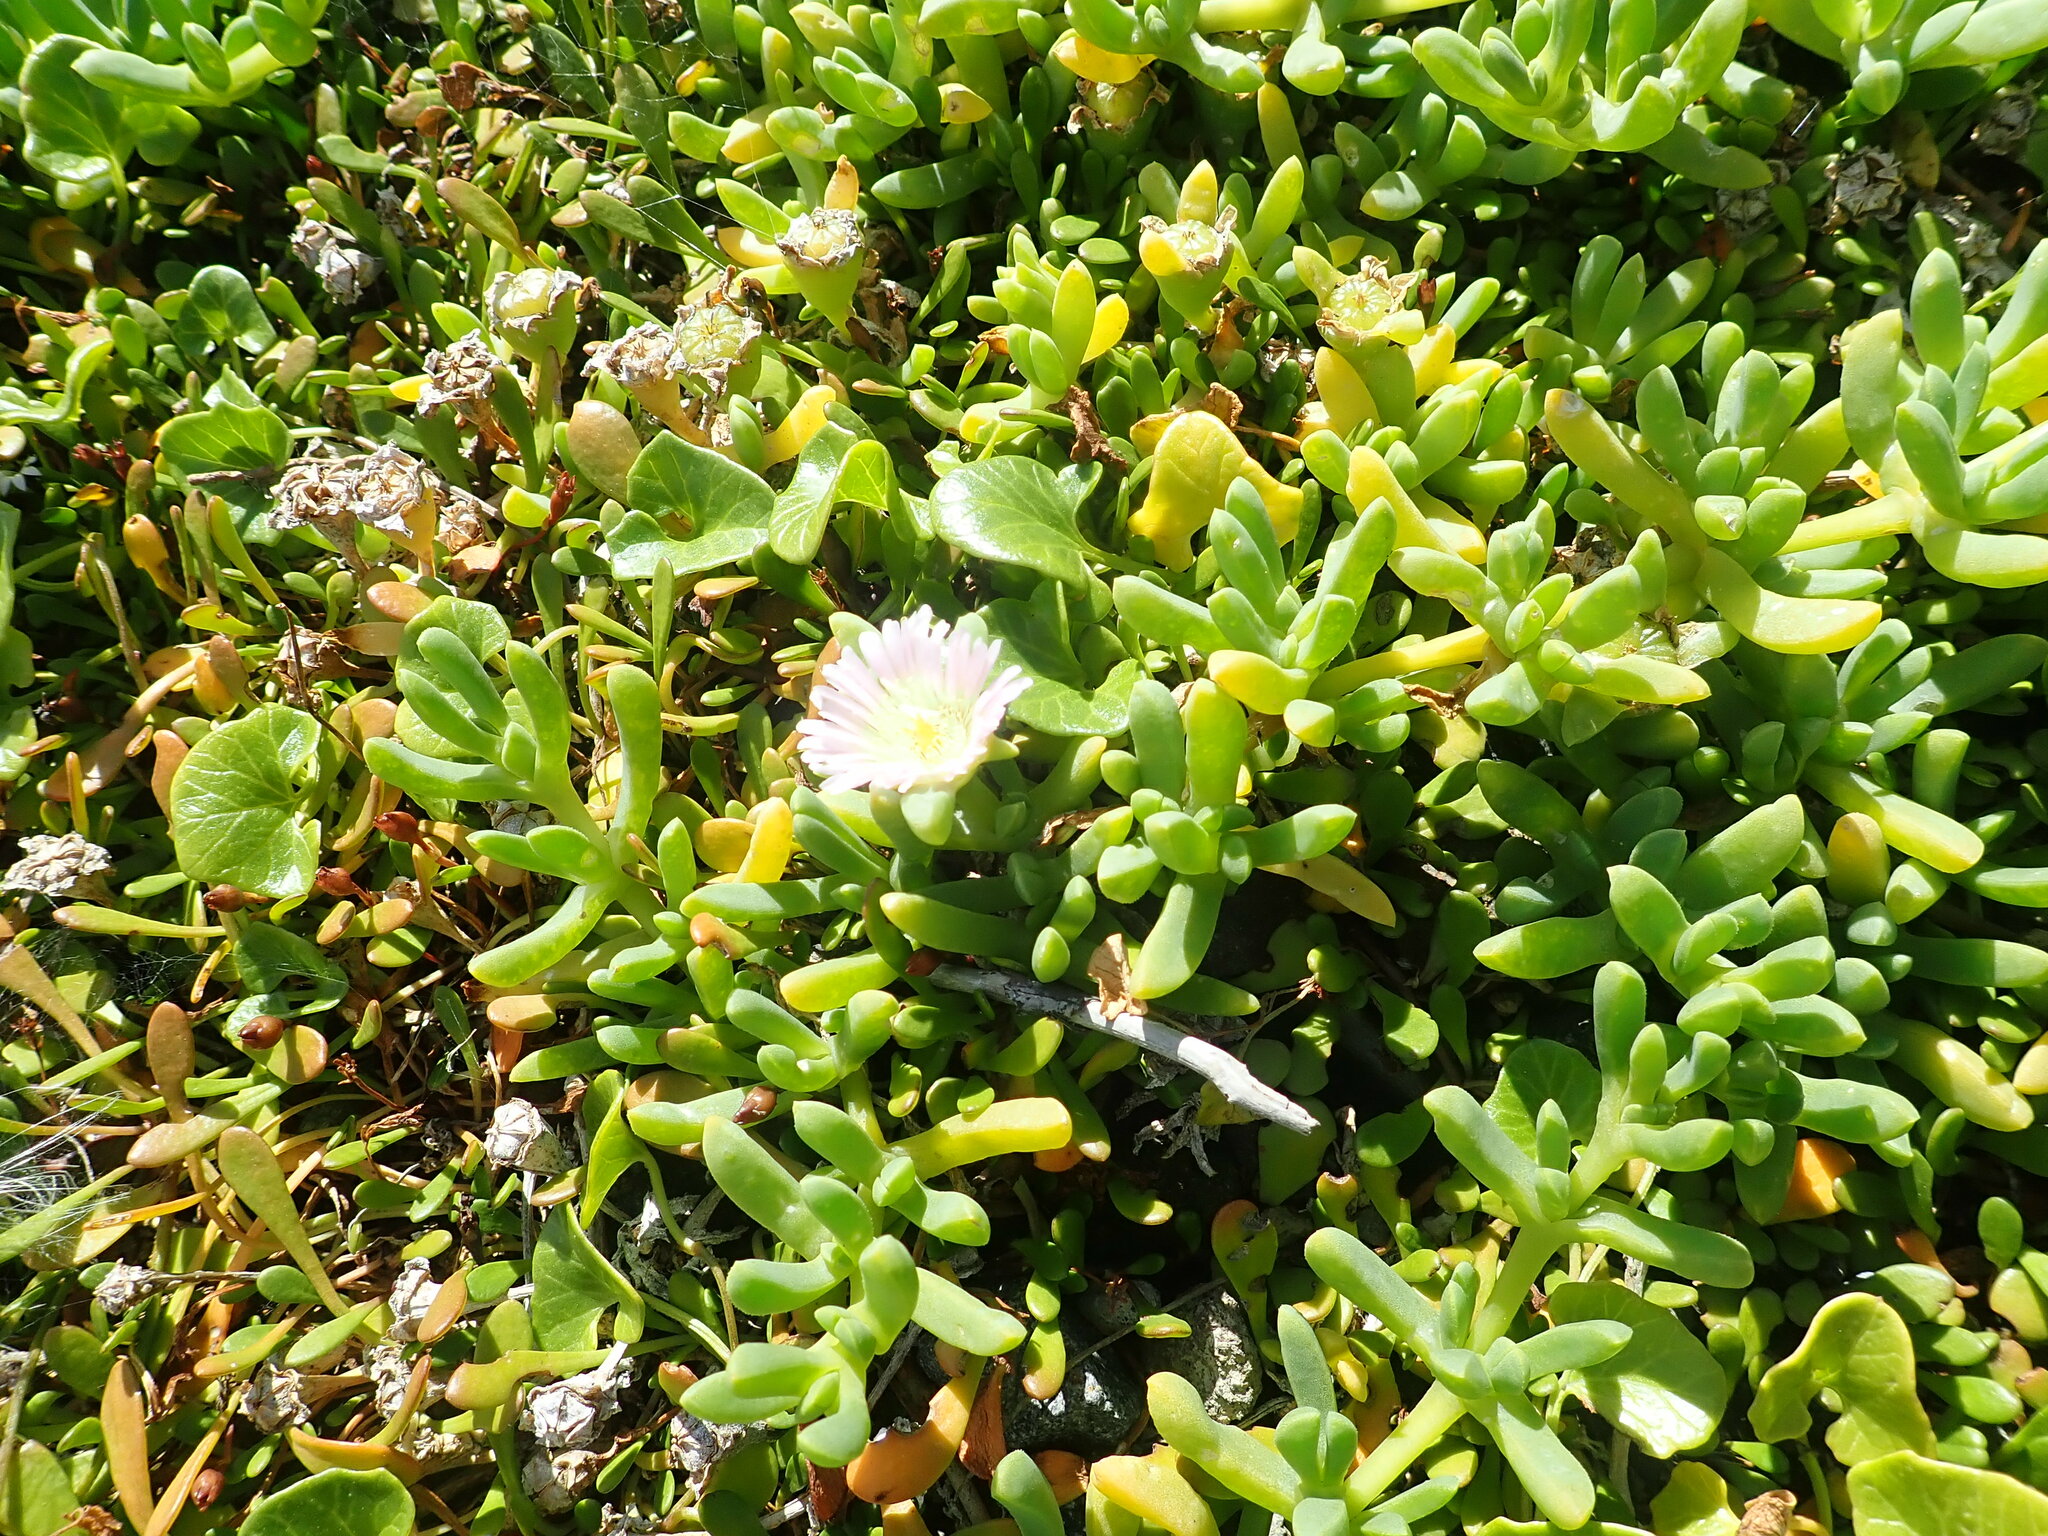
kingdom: Plantae
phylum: Tracheophyta
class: Magnoliopsida
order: Caryophyllales
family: Aizoaceae
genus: Disphyma
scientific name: Disphyma australe
